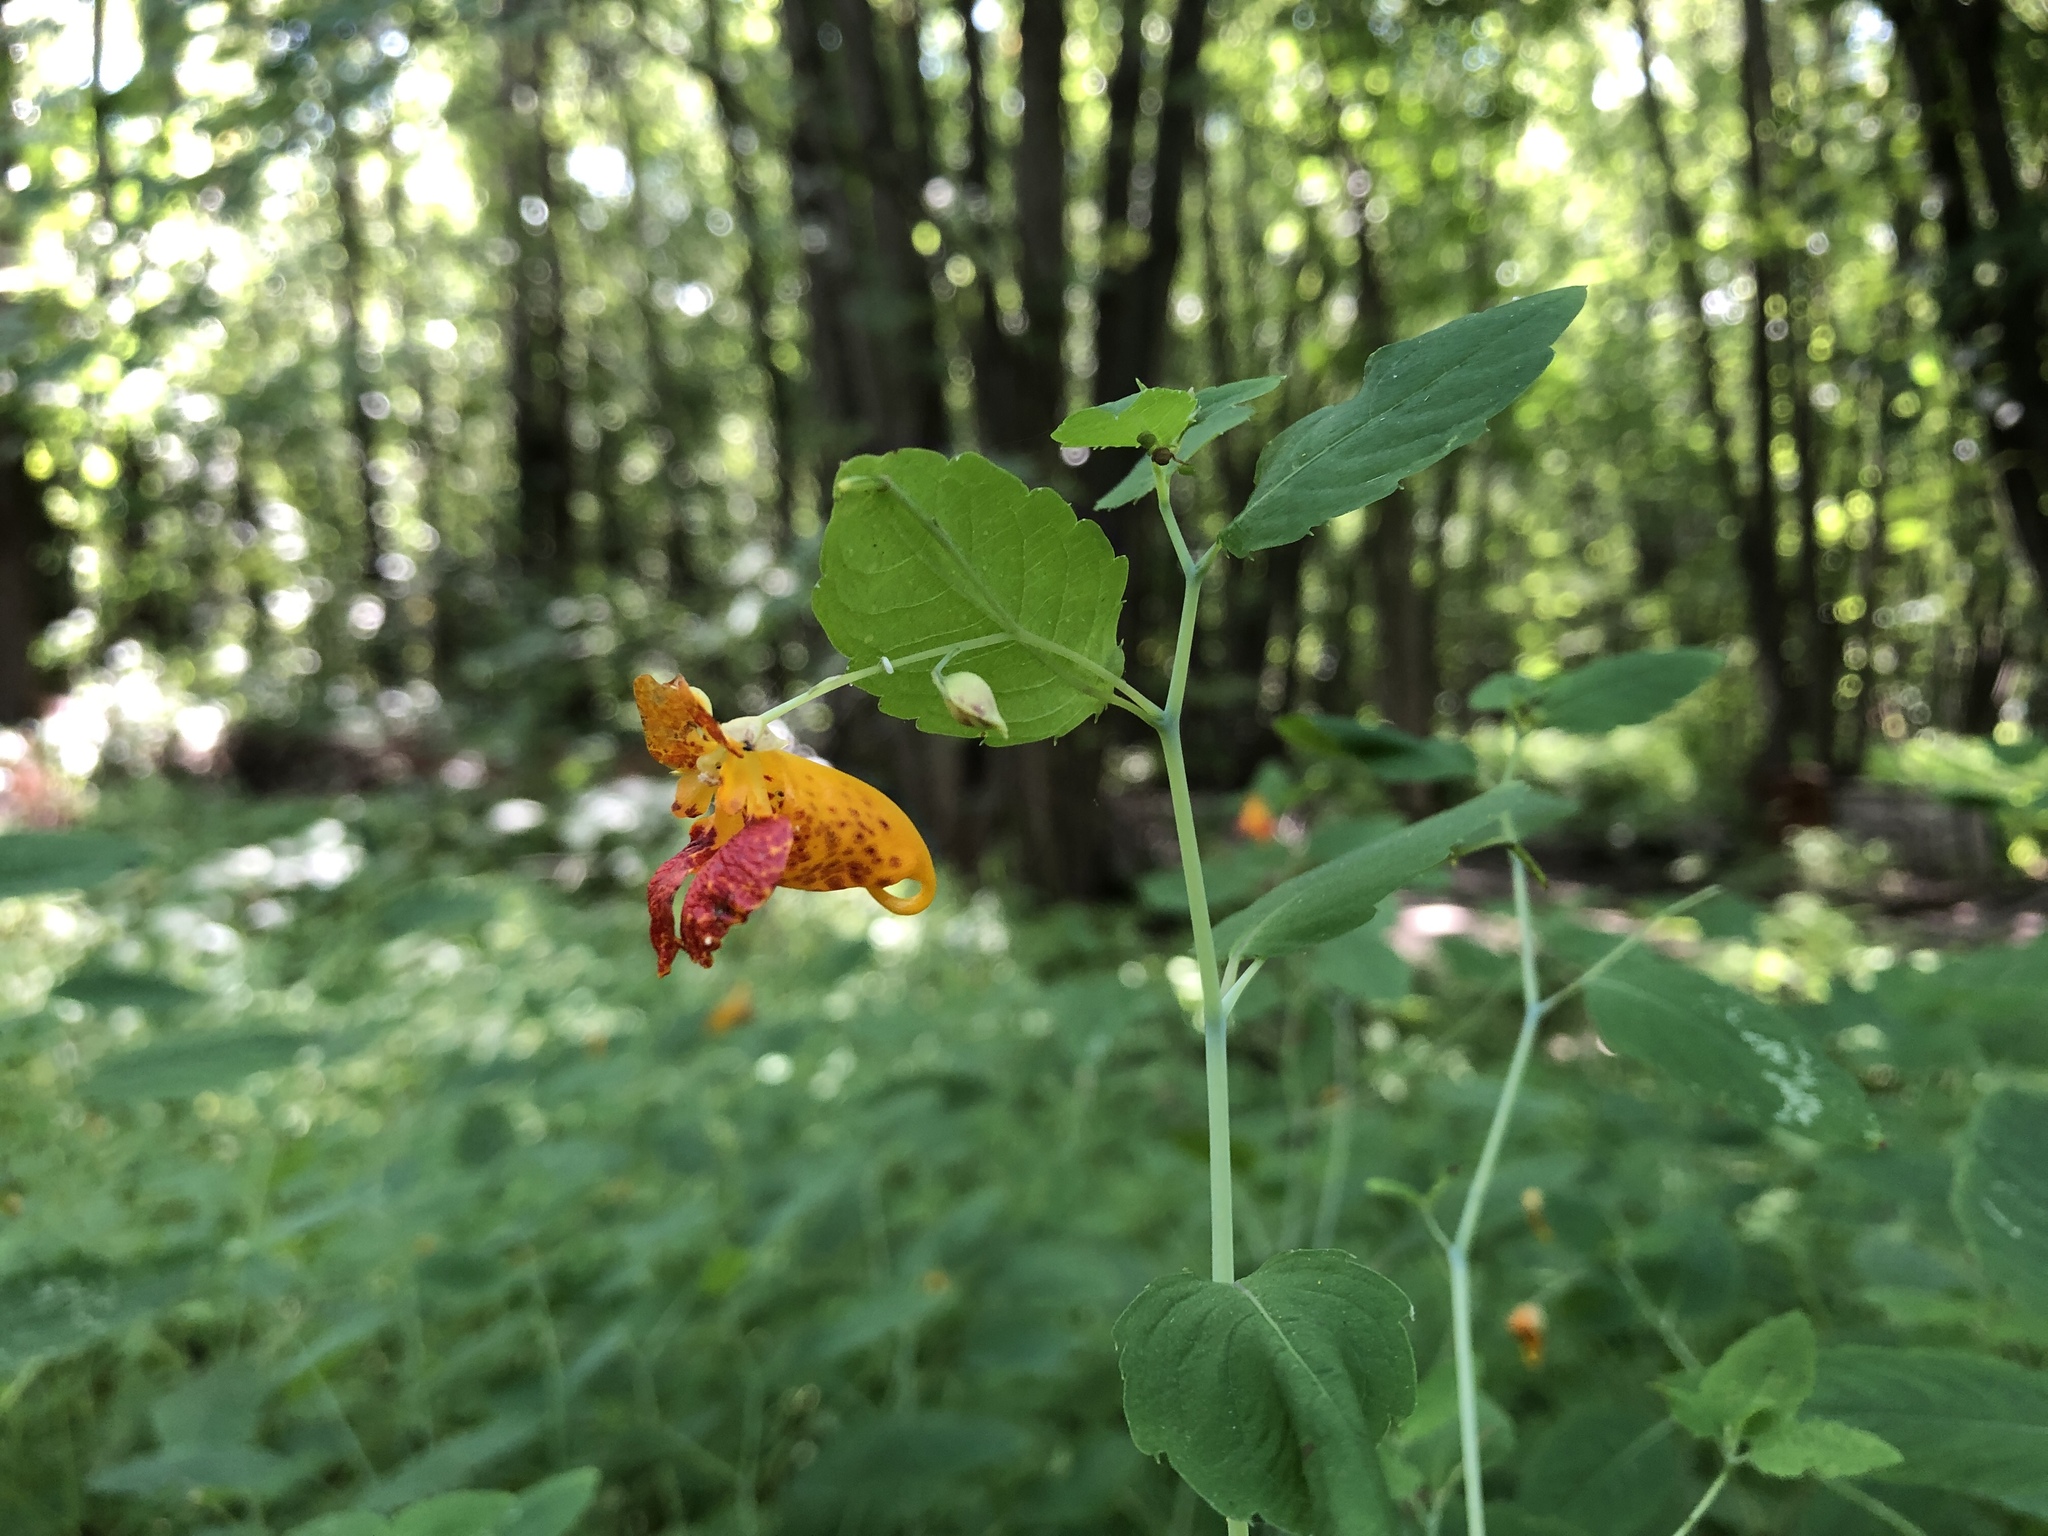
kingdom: Plantae
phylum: Tracheophyta
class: Magnoliopsida
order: Ericales
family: Balsaminaceae
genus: Impatiens
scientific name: Impatiens capensis
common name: Orange balsam
